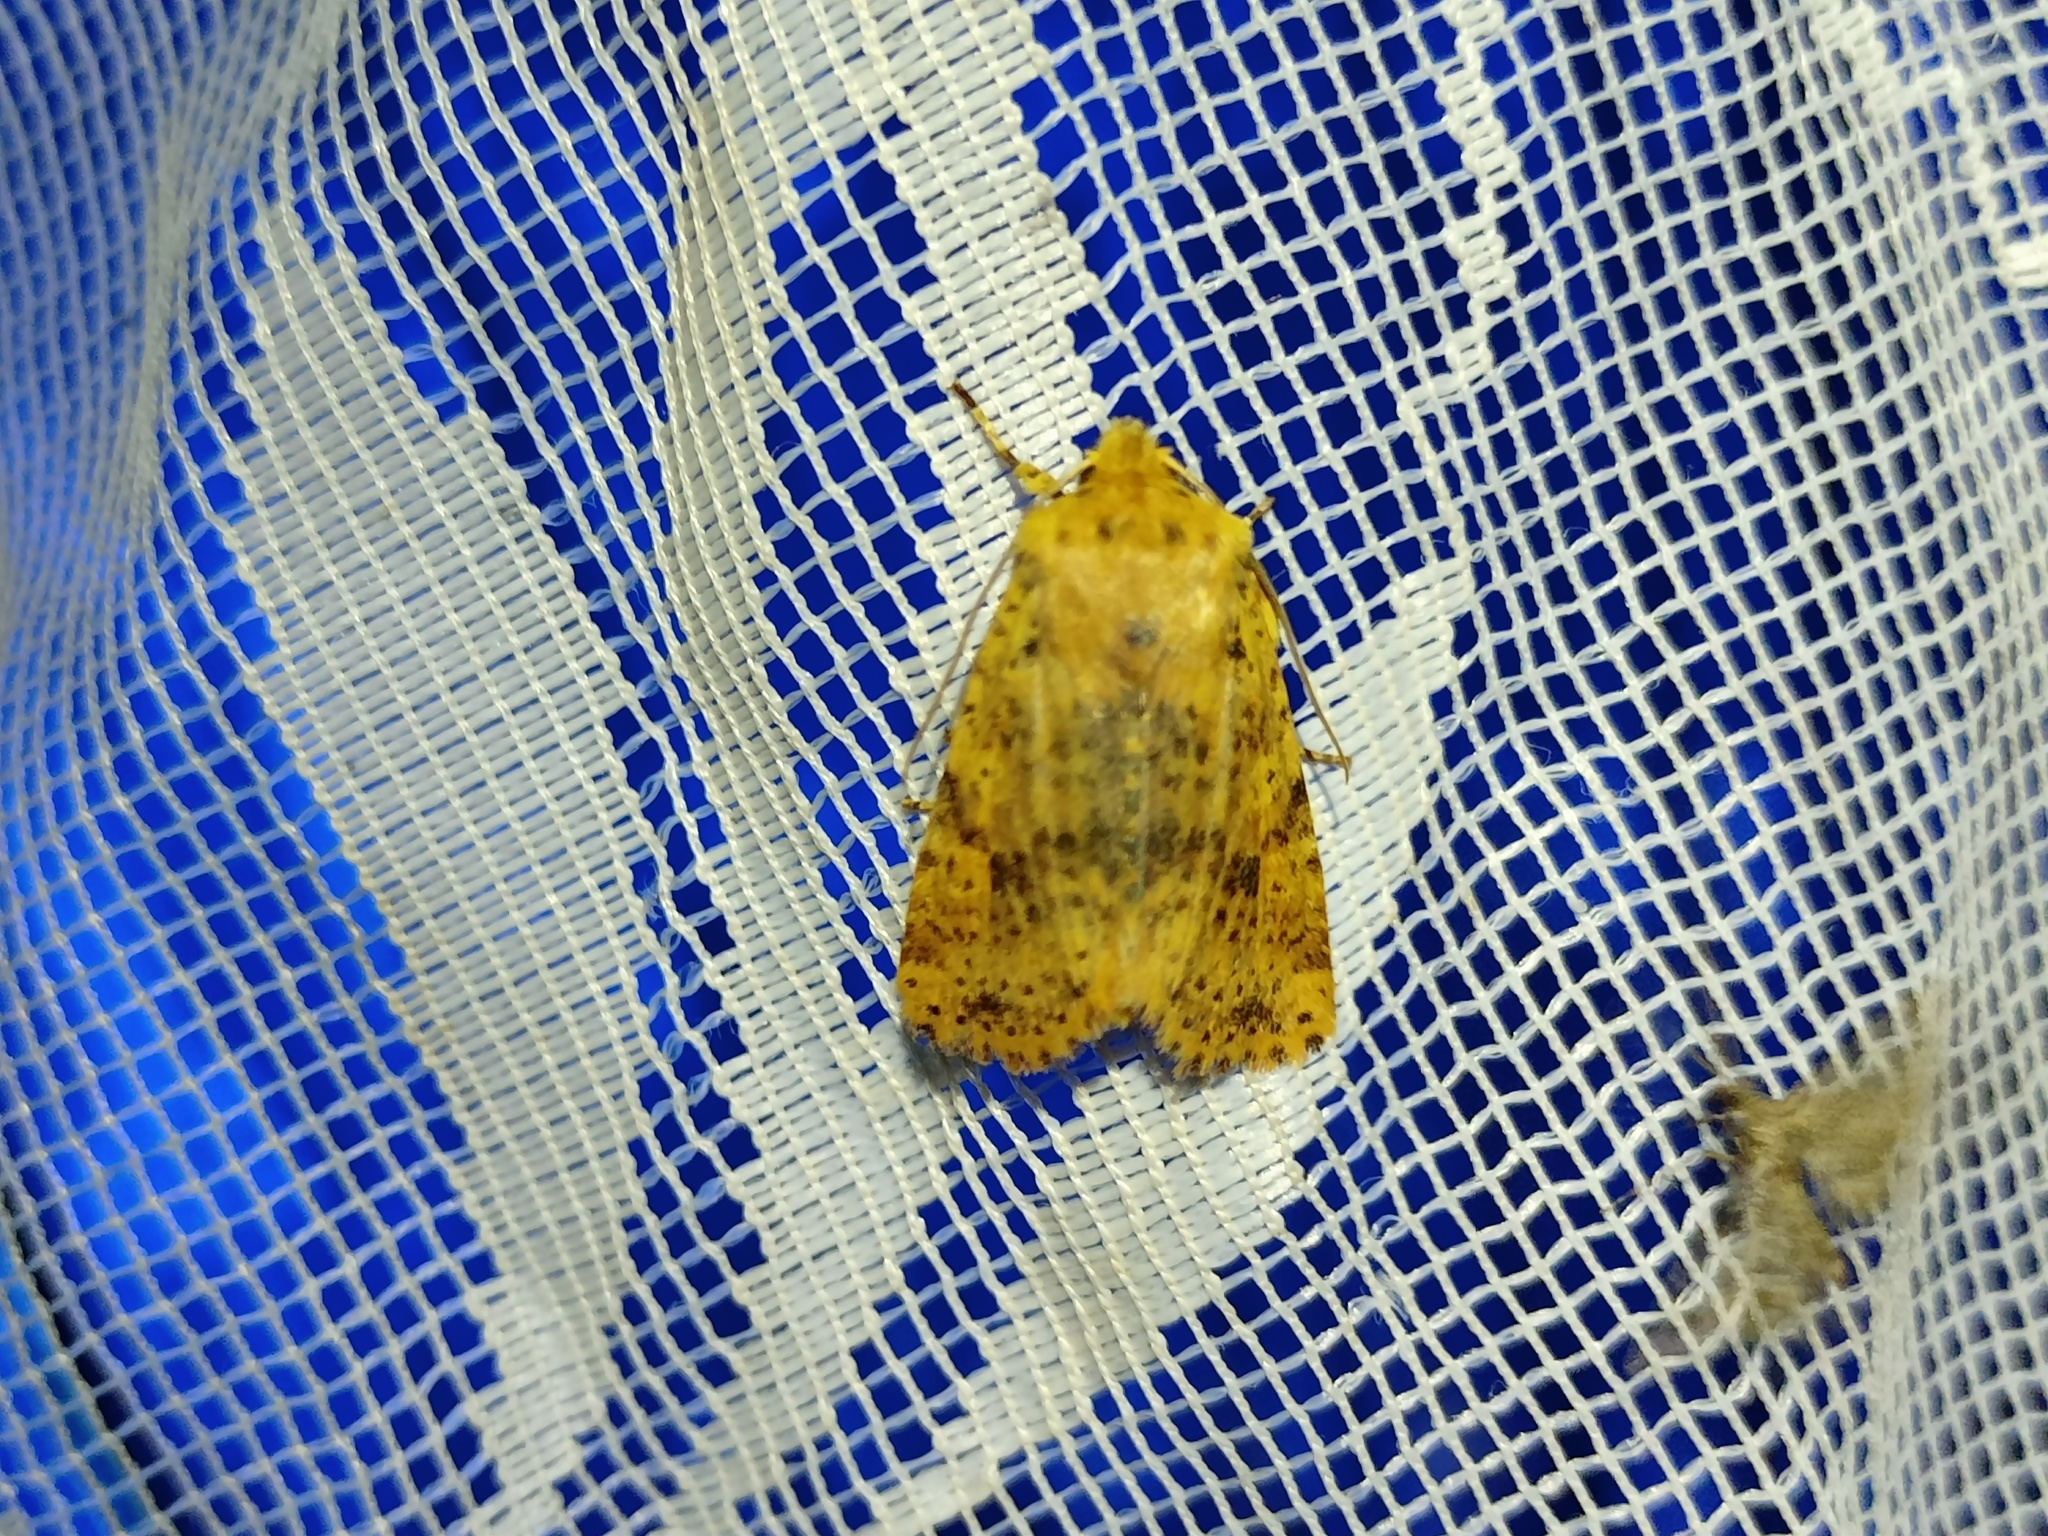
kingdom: Animalia
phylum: Arthropoda
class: Insecta
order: Lepidoptera
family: Noctuidae
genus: Conistra
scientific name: Conistra rubiginea
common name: Dotted chestnut
